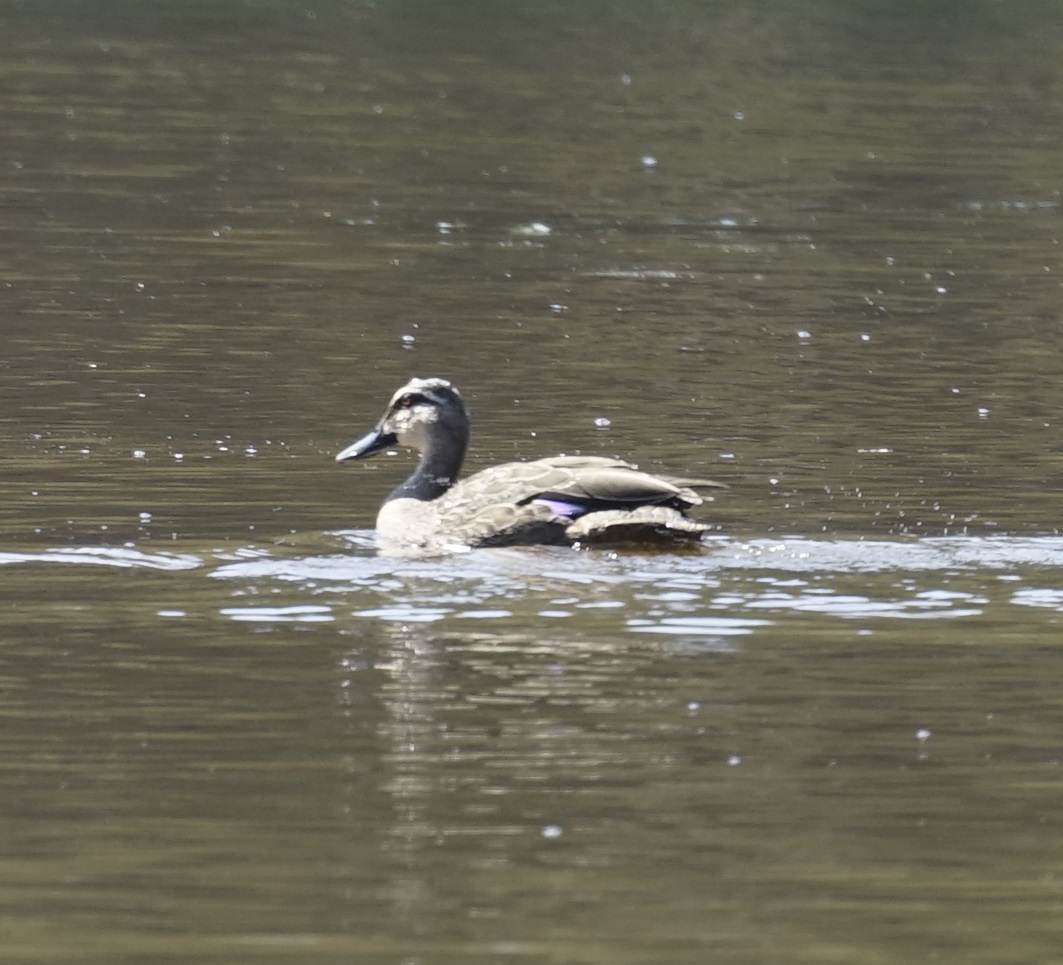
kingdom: Animalia
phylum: Chordata
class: Aves
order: Anseriformes
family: Anatidae
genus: Anas
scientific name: Anas superciliosa
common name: Pacific black duck
